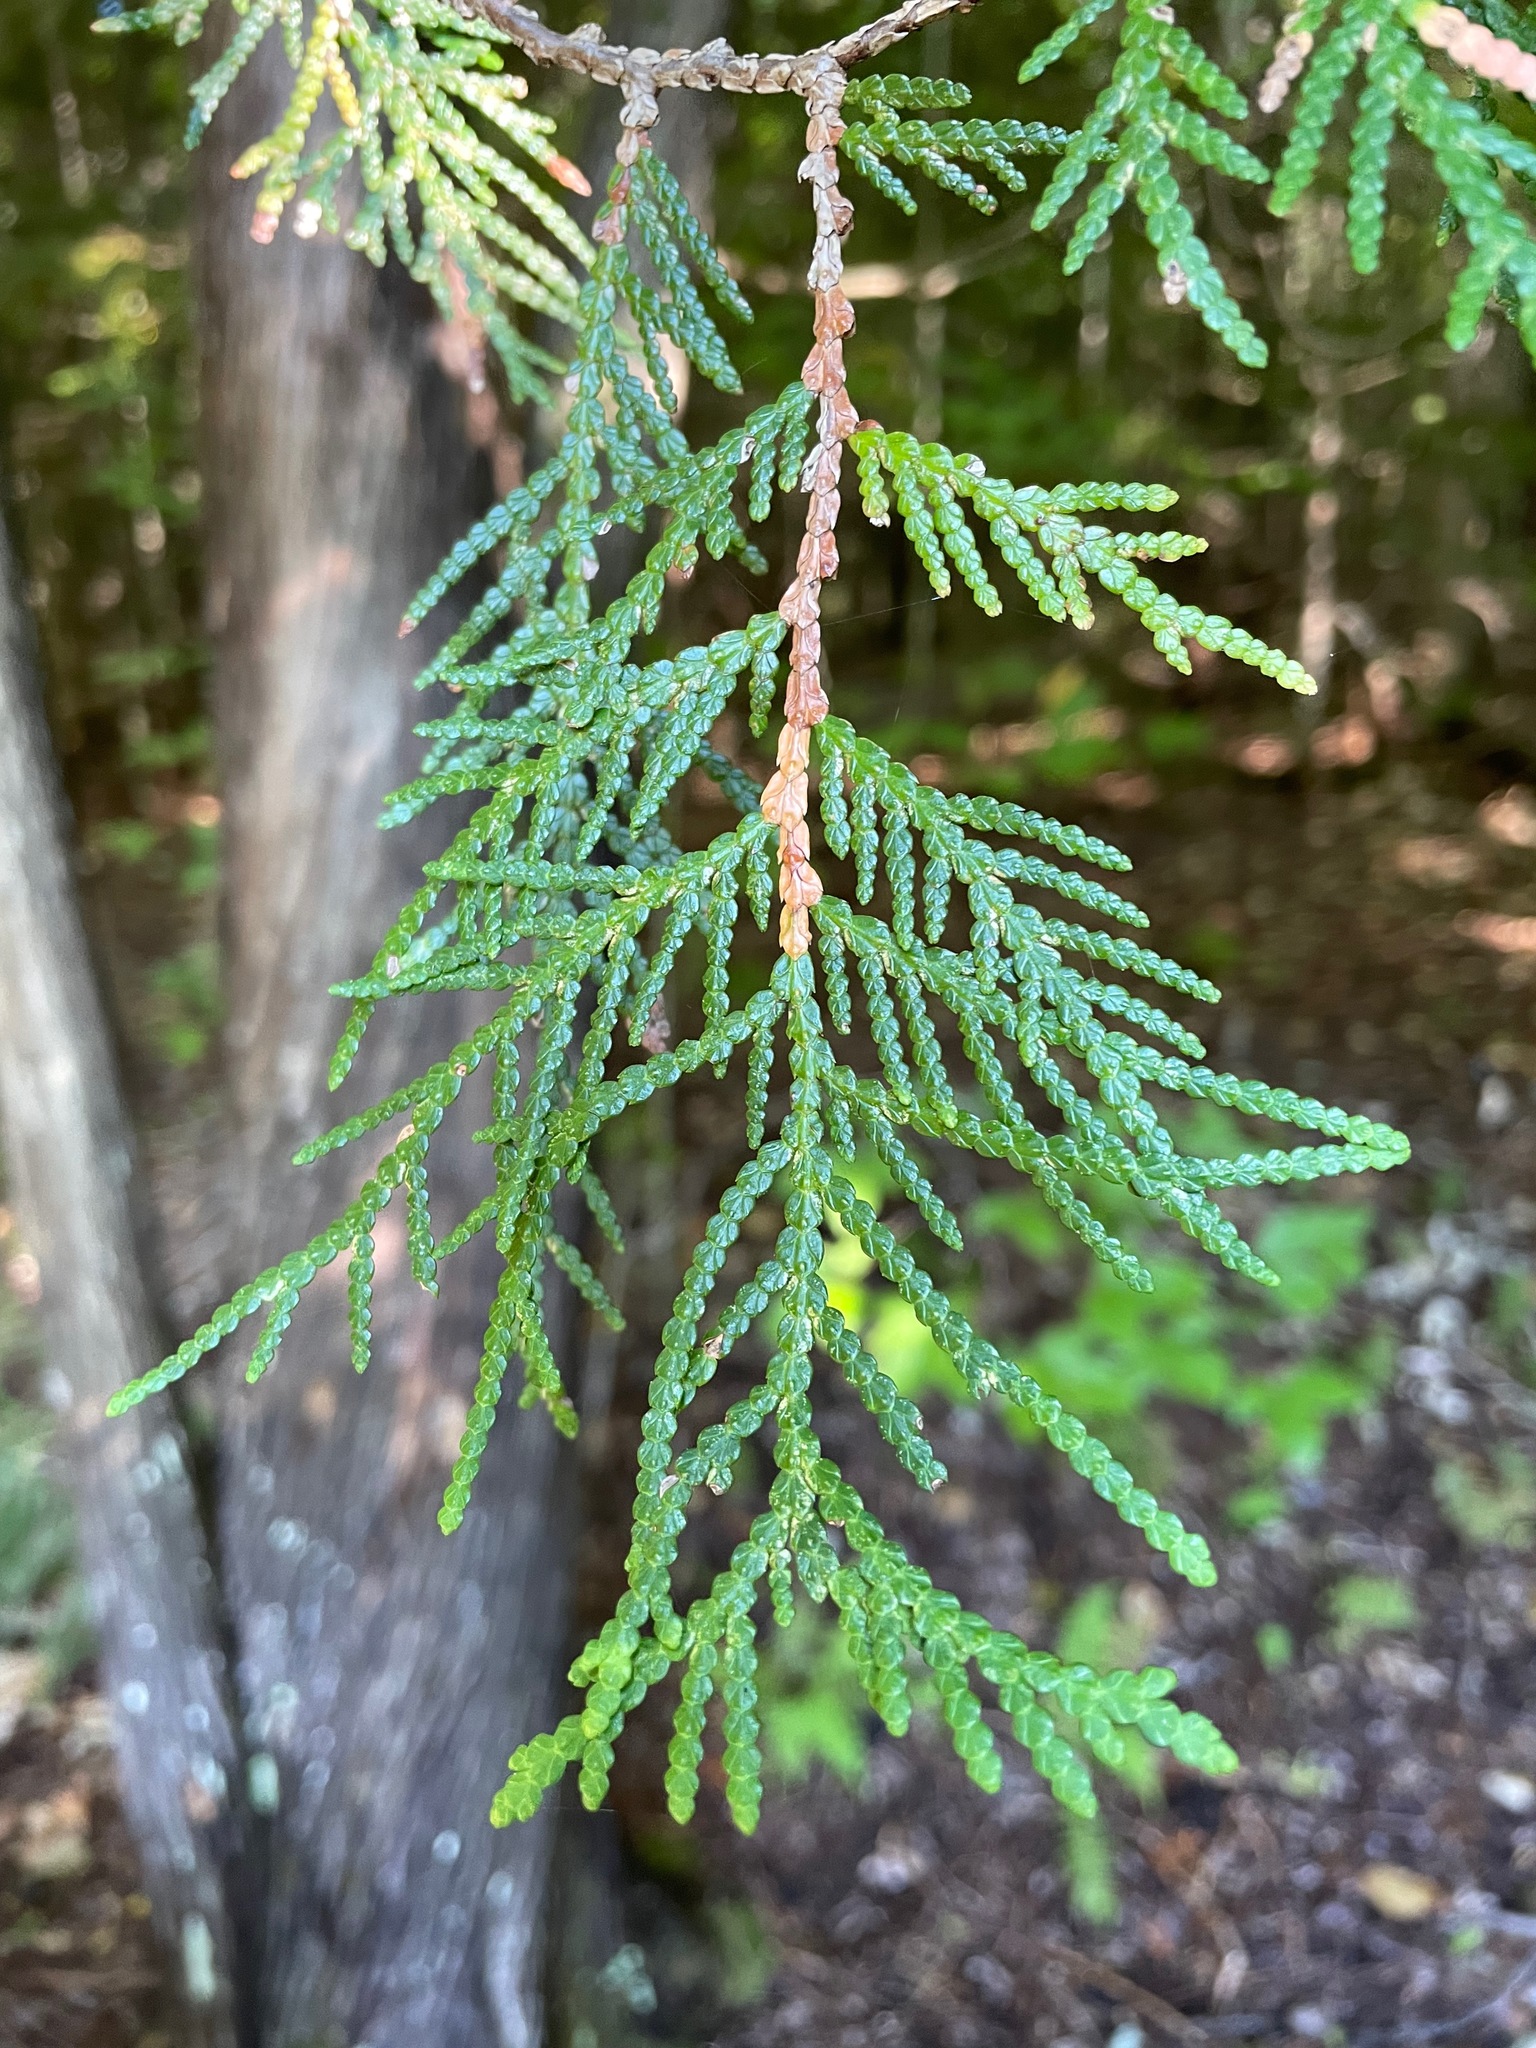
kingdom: Plantae
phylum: Tracheophyta
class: Pinopsida
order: Pinales
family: Cupressaceae
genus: Thuja
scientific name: Thuja occidentalis
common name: Northern white-cedar
